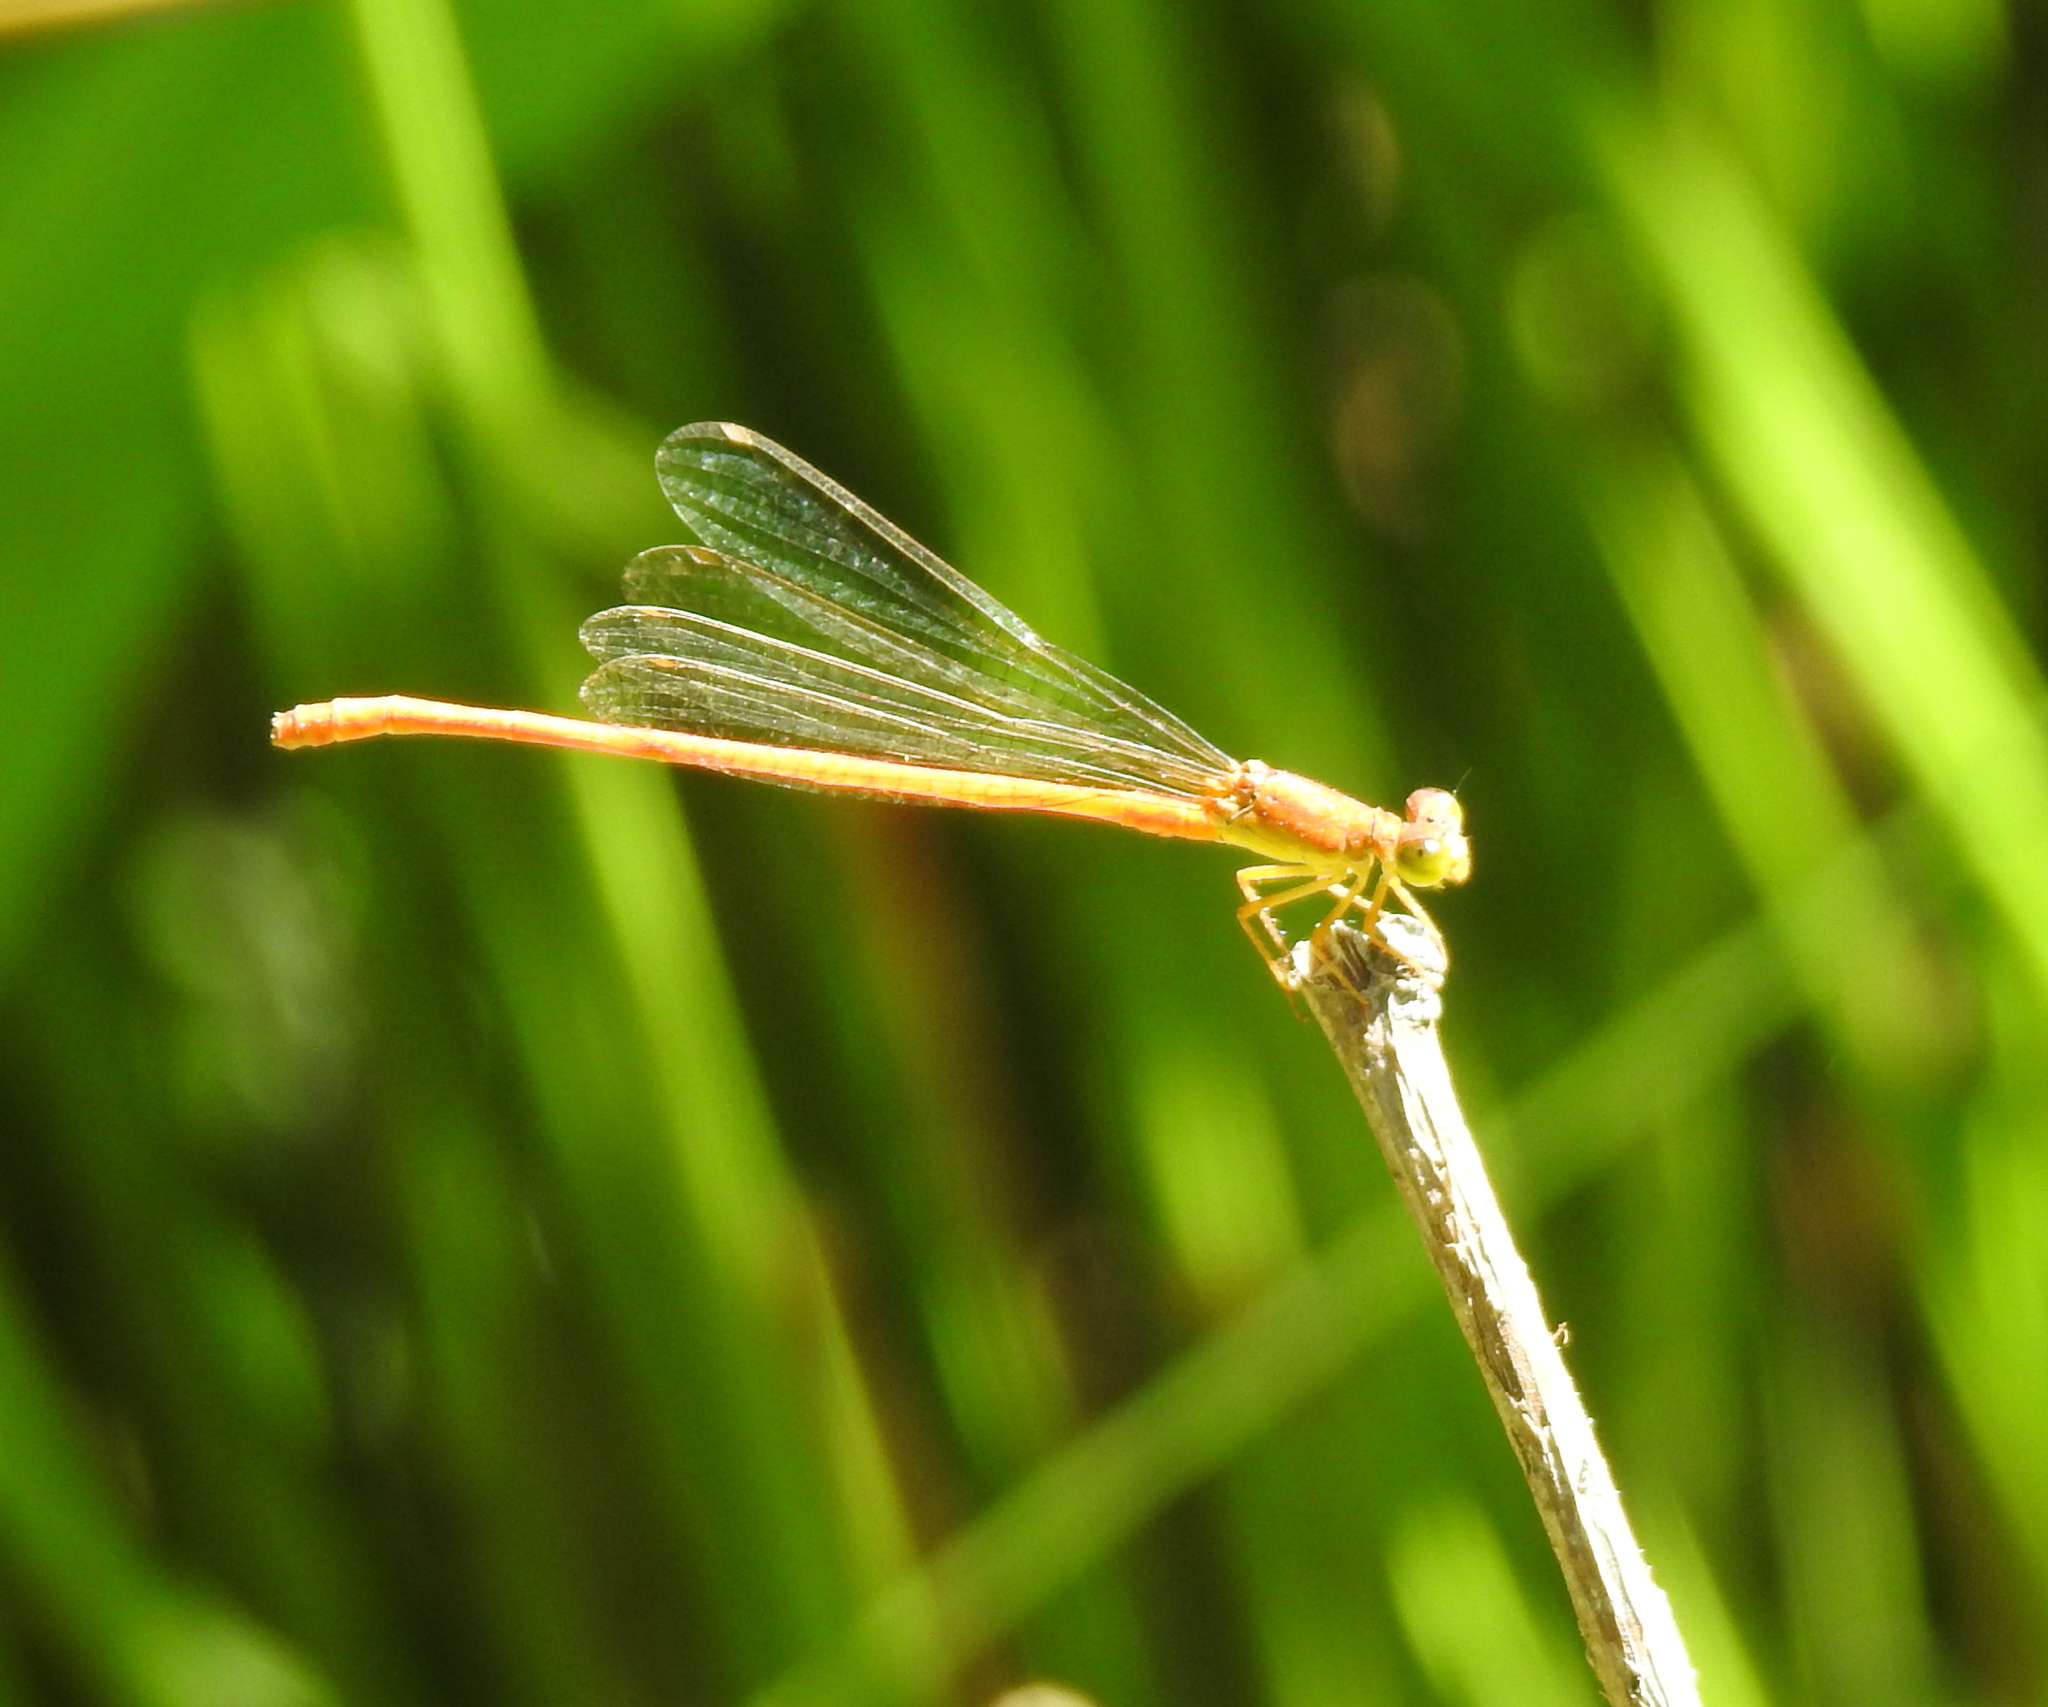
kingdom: Animalia
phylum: Arthropoda
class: Insecta
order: Odonata
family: Coenagrionidae
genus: Ceriagrion
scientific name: Ceriagrion glabrum
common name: Common pond damsel
